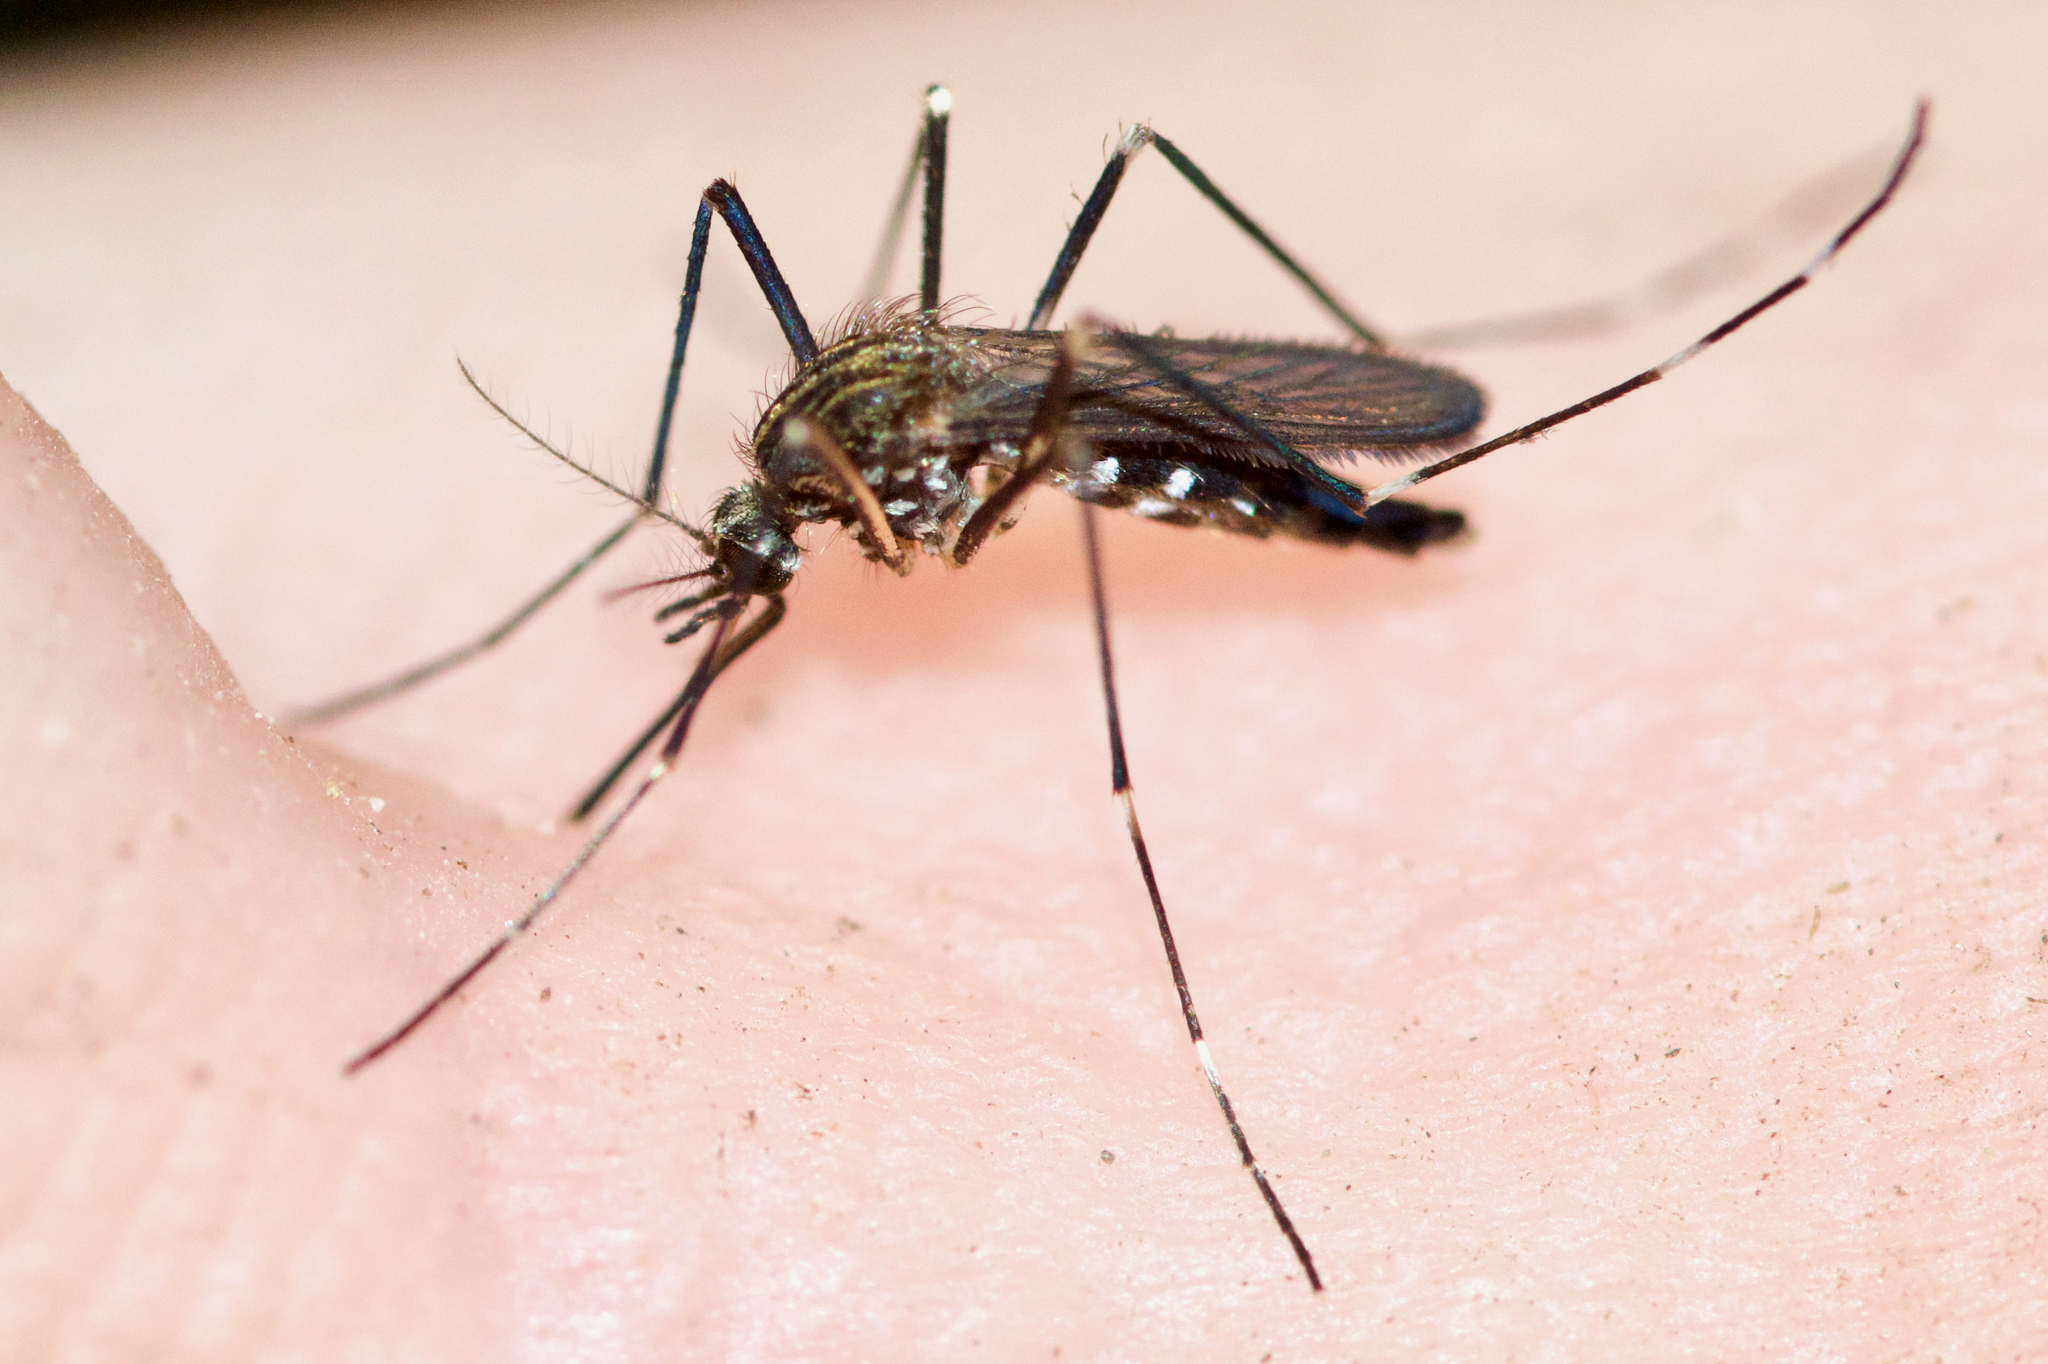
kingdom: Animalia
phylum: Arthropoda
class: Insecta
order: Diptera
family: Culicidae
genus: Aedes
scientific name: Aedes japonicus
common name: Asian bush mosquito
